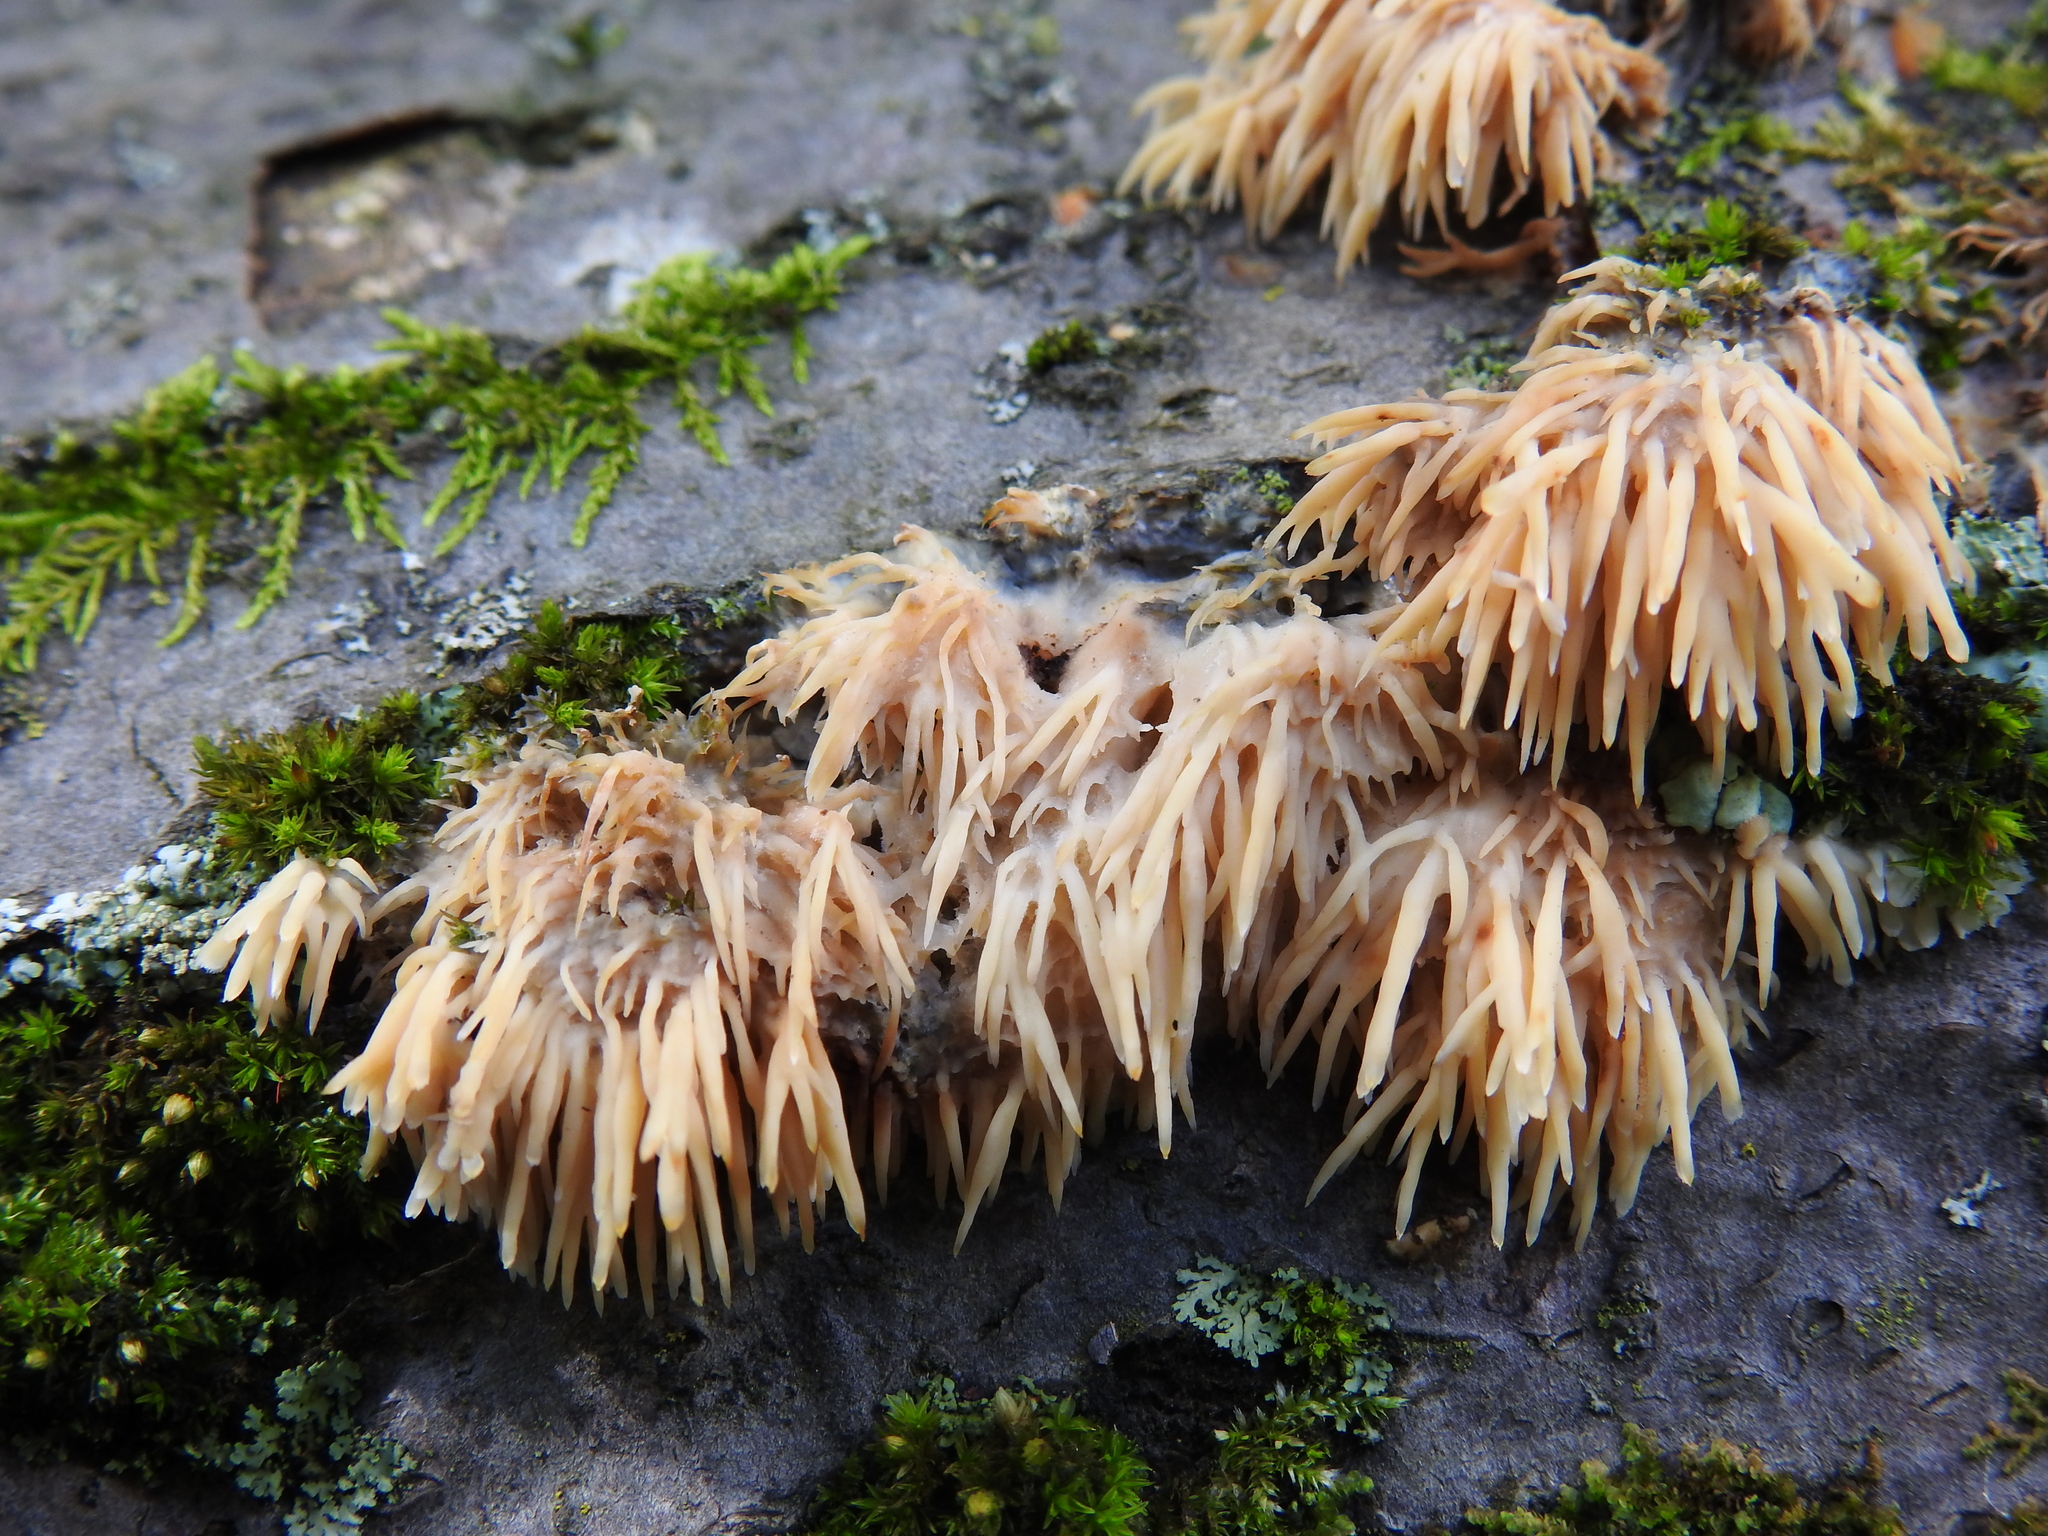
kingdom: Fungi
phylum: Basidiomycota
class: Agaricomycetes
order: Agaricales
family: Radulomycetaceae
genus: Radulomyces
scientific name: Radulomyces copelandii
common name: Asian beauty
